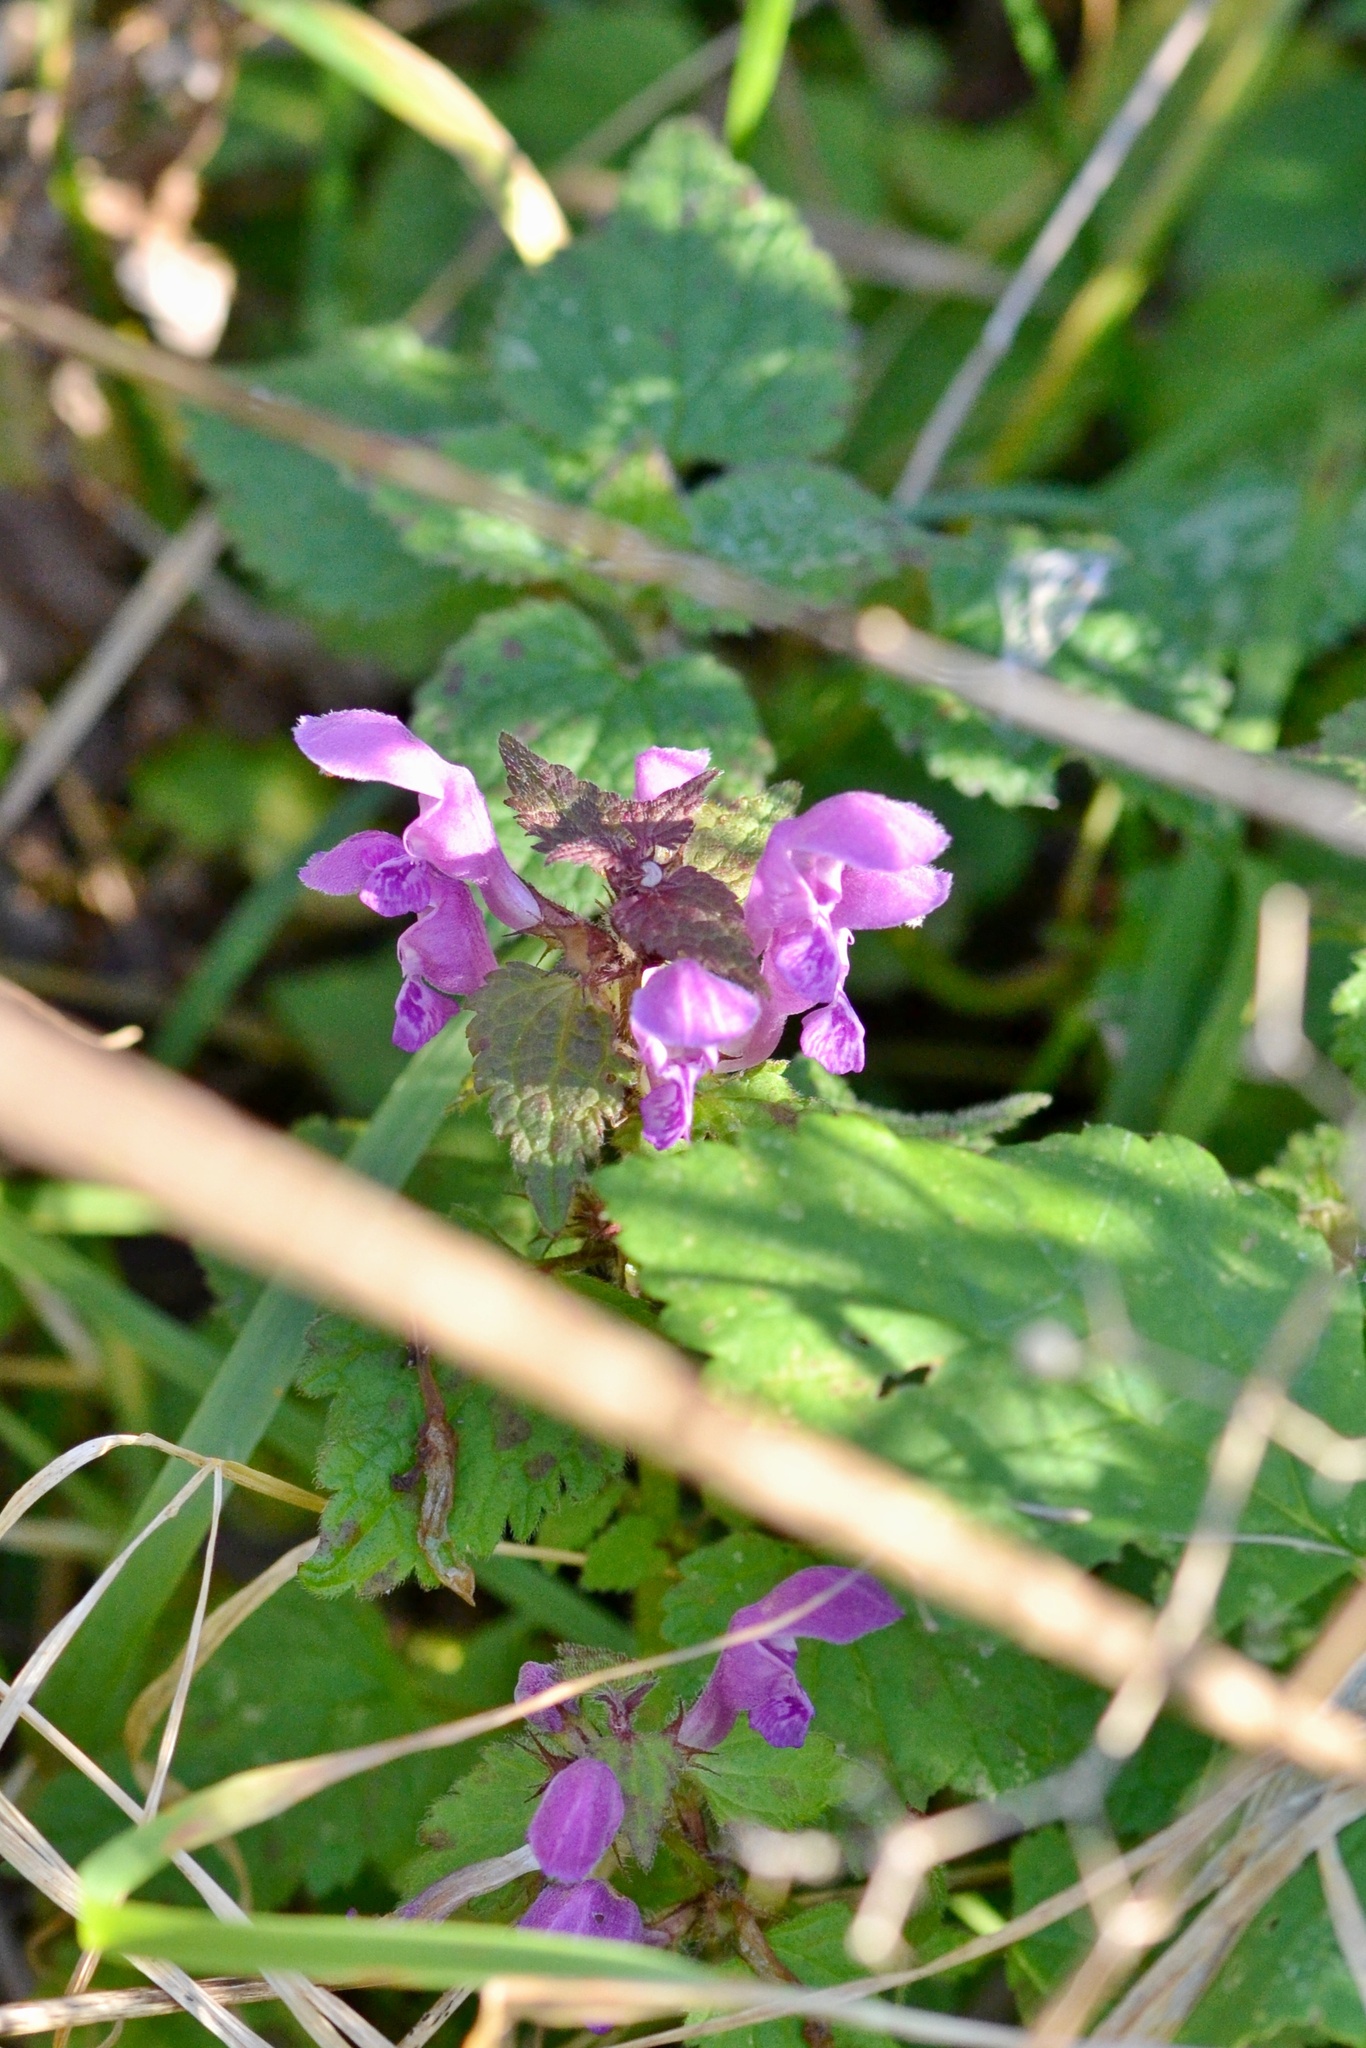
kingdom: Plantae
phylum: Tracheophyta
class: Magnoliopsida
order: Lamiales
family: Lamiaceae
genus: Lamium
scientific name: Lamium maculatum
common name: Spotted dead-nettle
